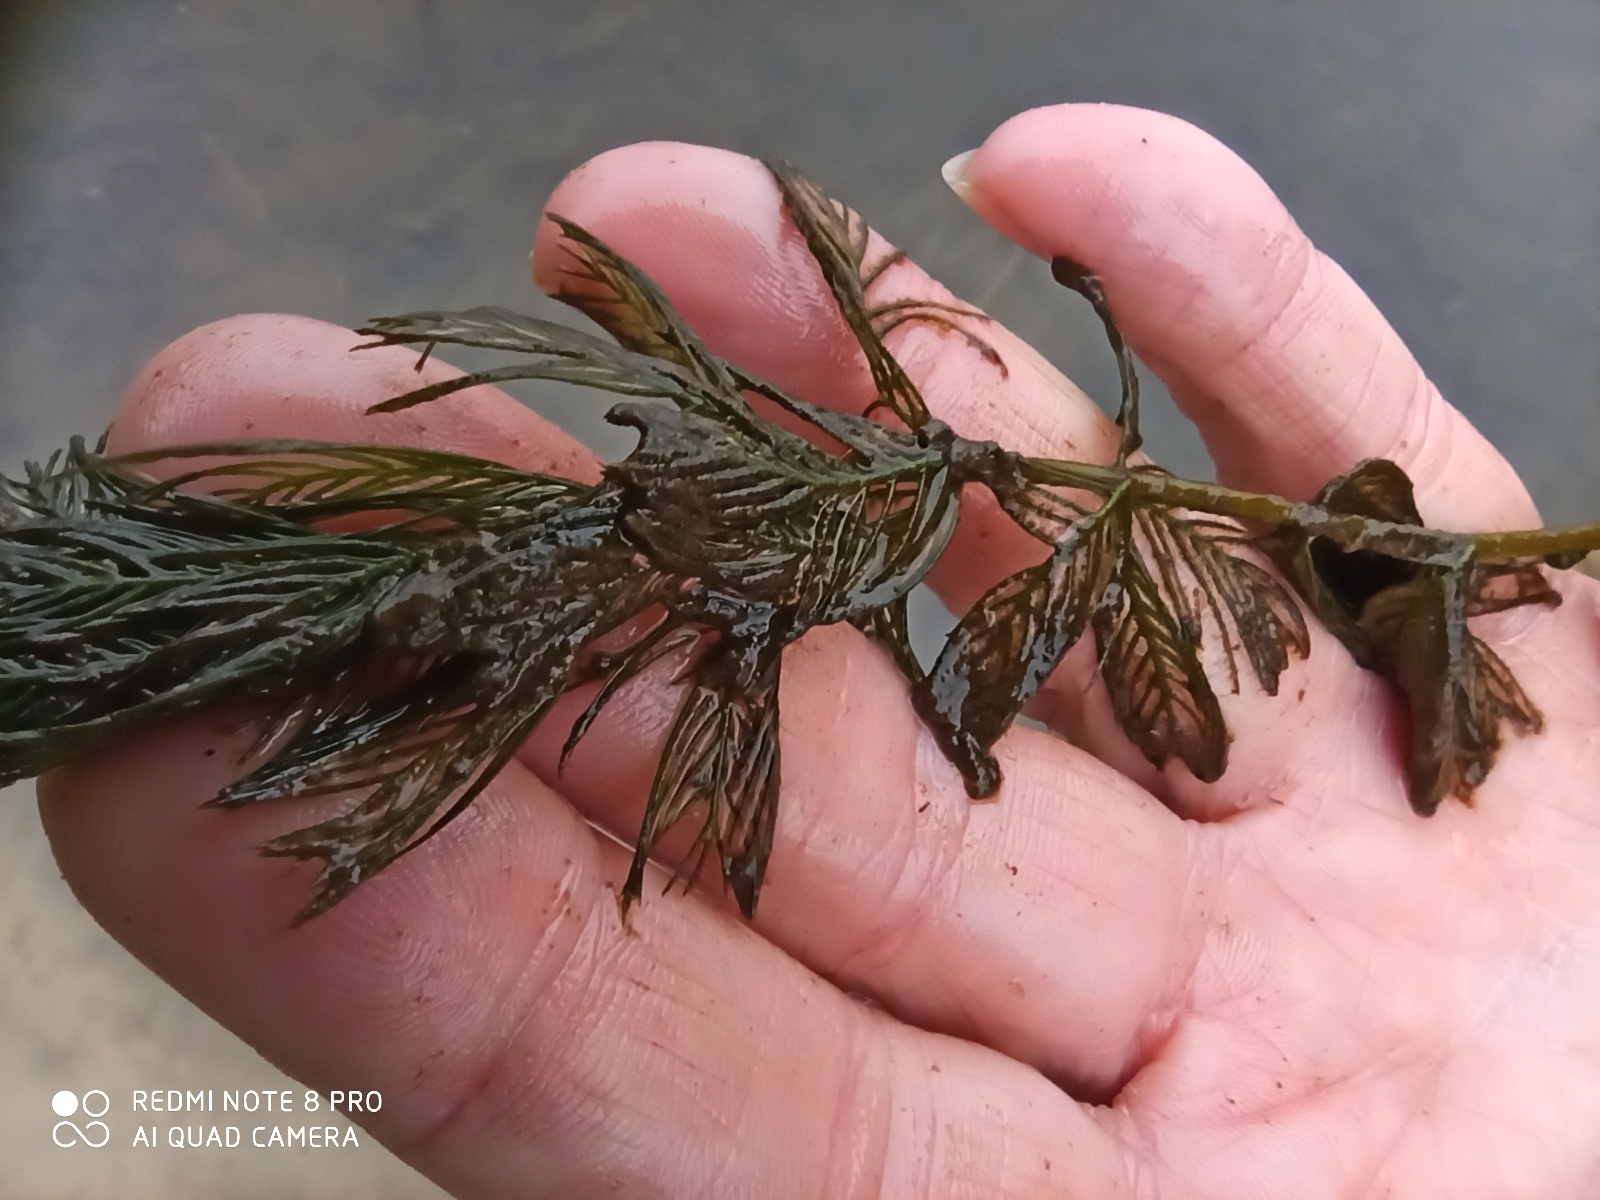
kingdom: Plantae
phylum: Tracheophyta
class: Magnoliopsida
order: Saxifragales
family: Haloragaceae
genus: Myriophyllum
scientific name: Myriophyllum spicatum
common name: Spiked water-milfoil
